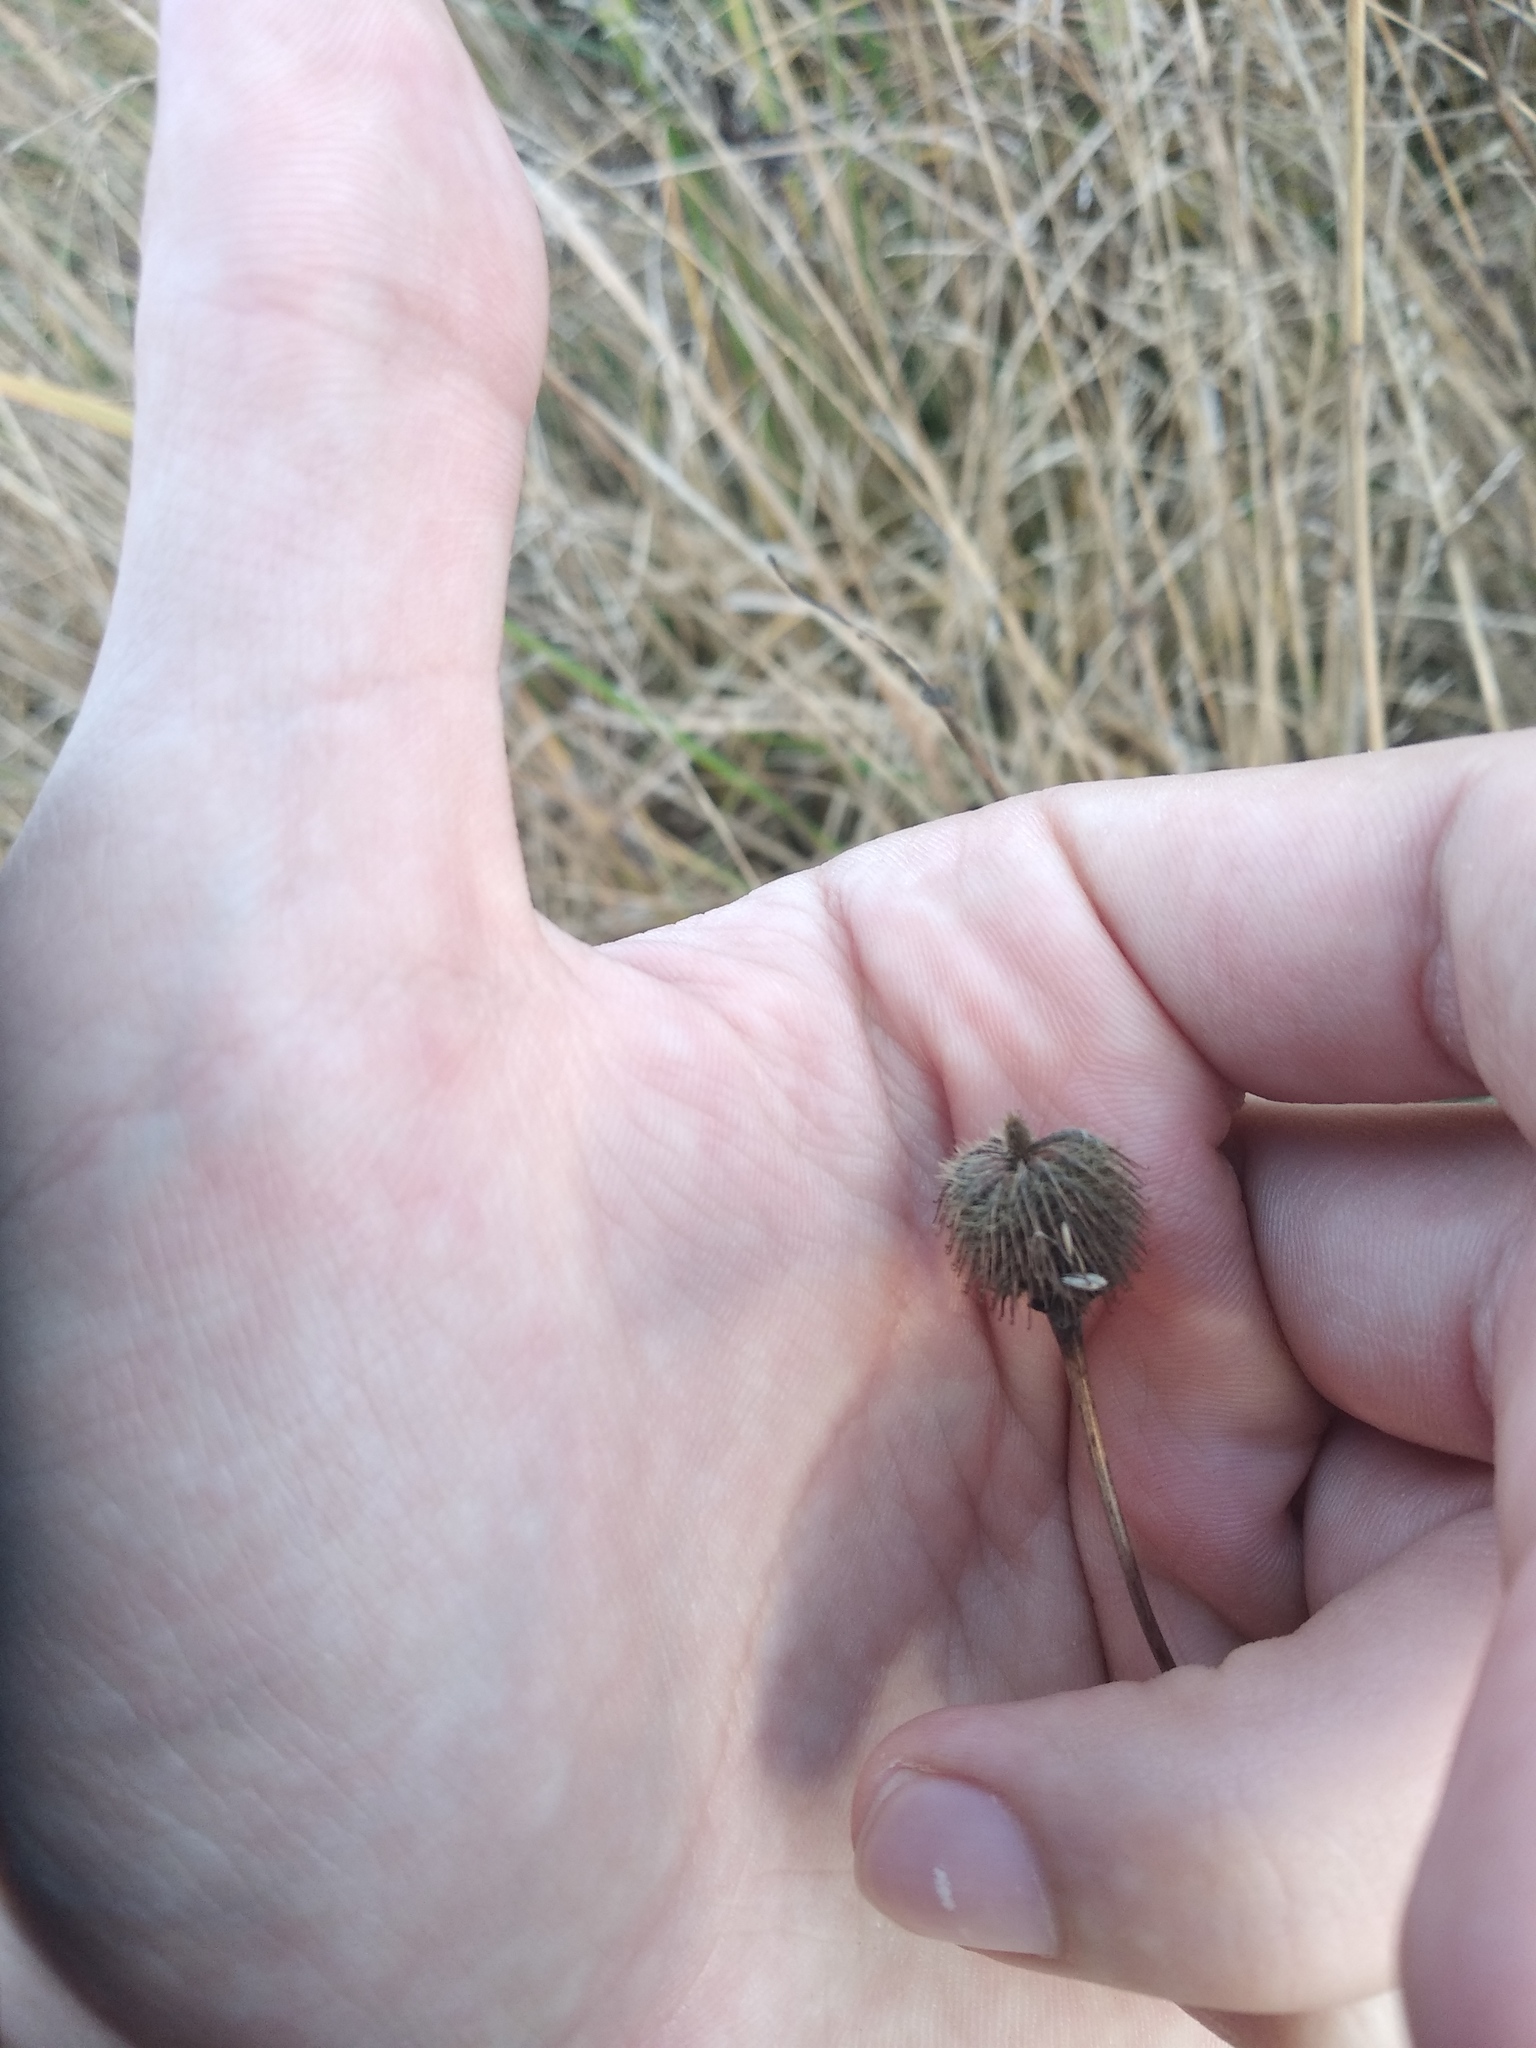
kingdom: Plantae
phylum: Tracheophyta
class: Magnoliopsida
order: Rosales
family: Rosaceae
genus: Geum
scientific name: Geum aleppicum
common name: Yellow avens
